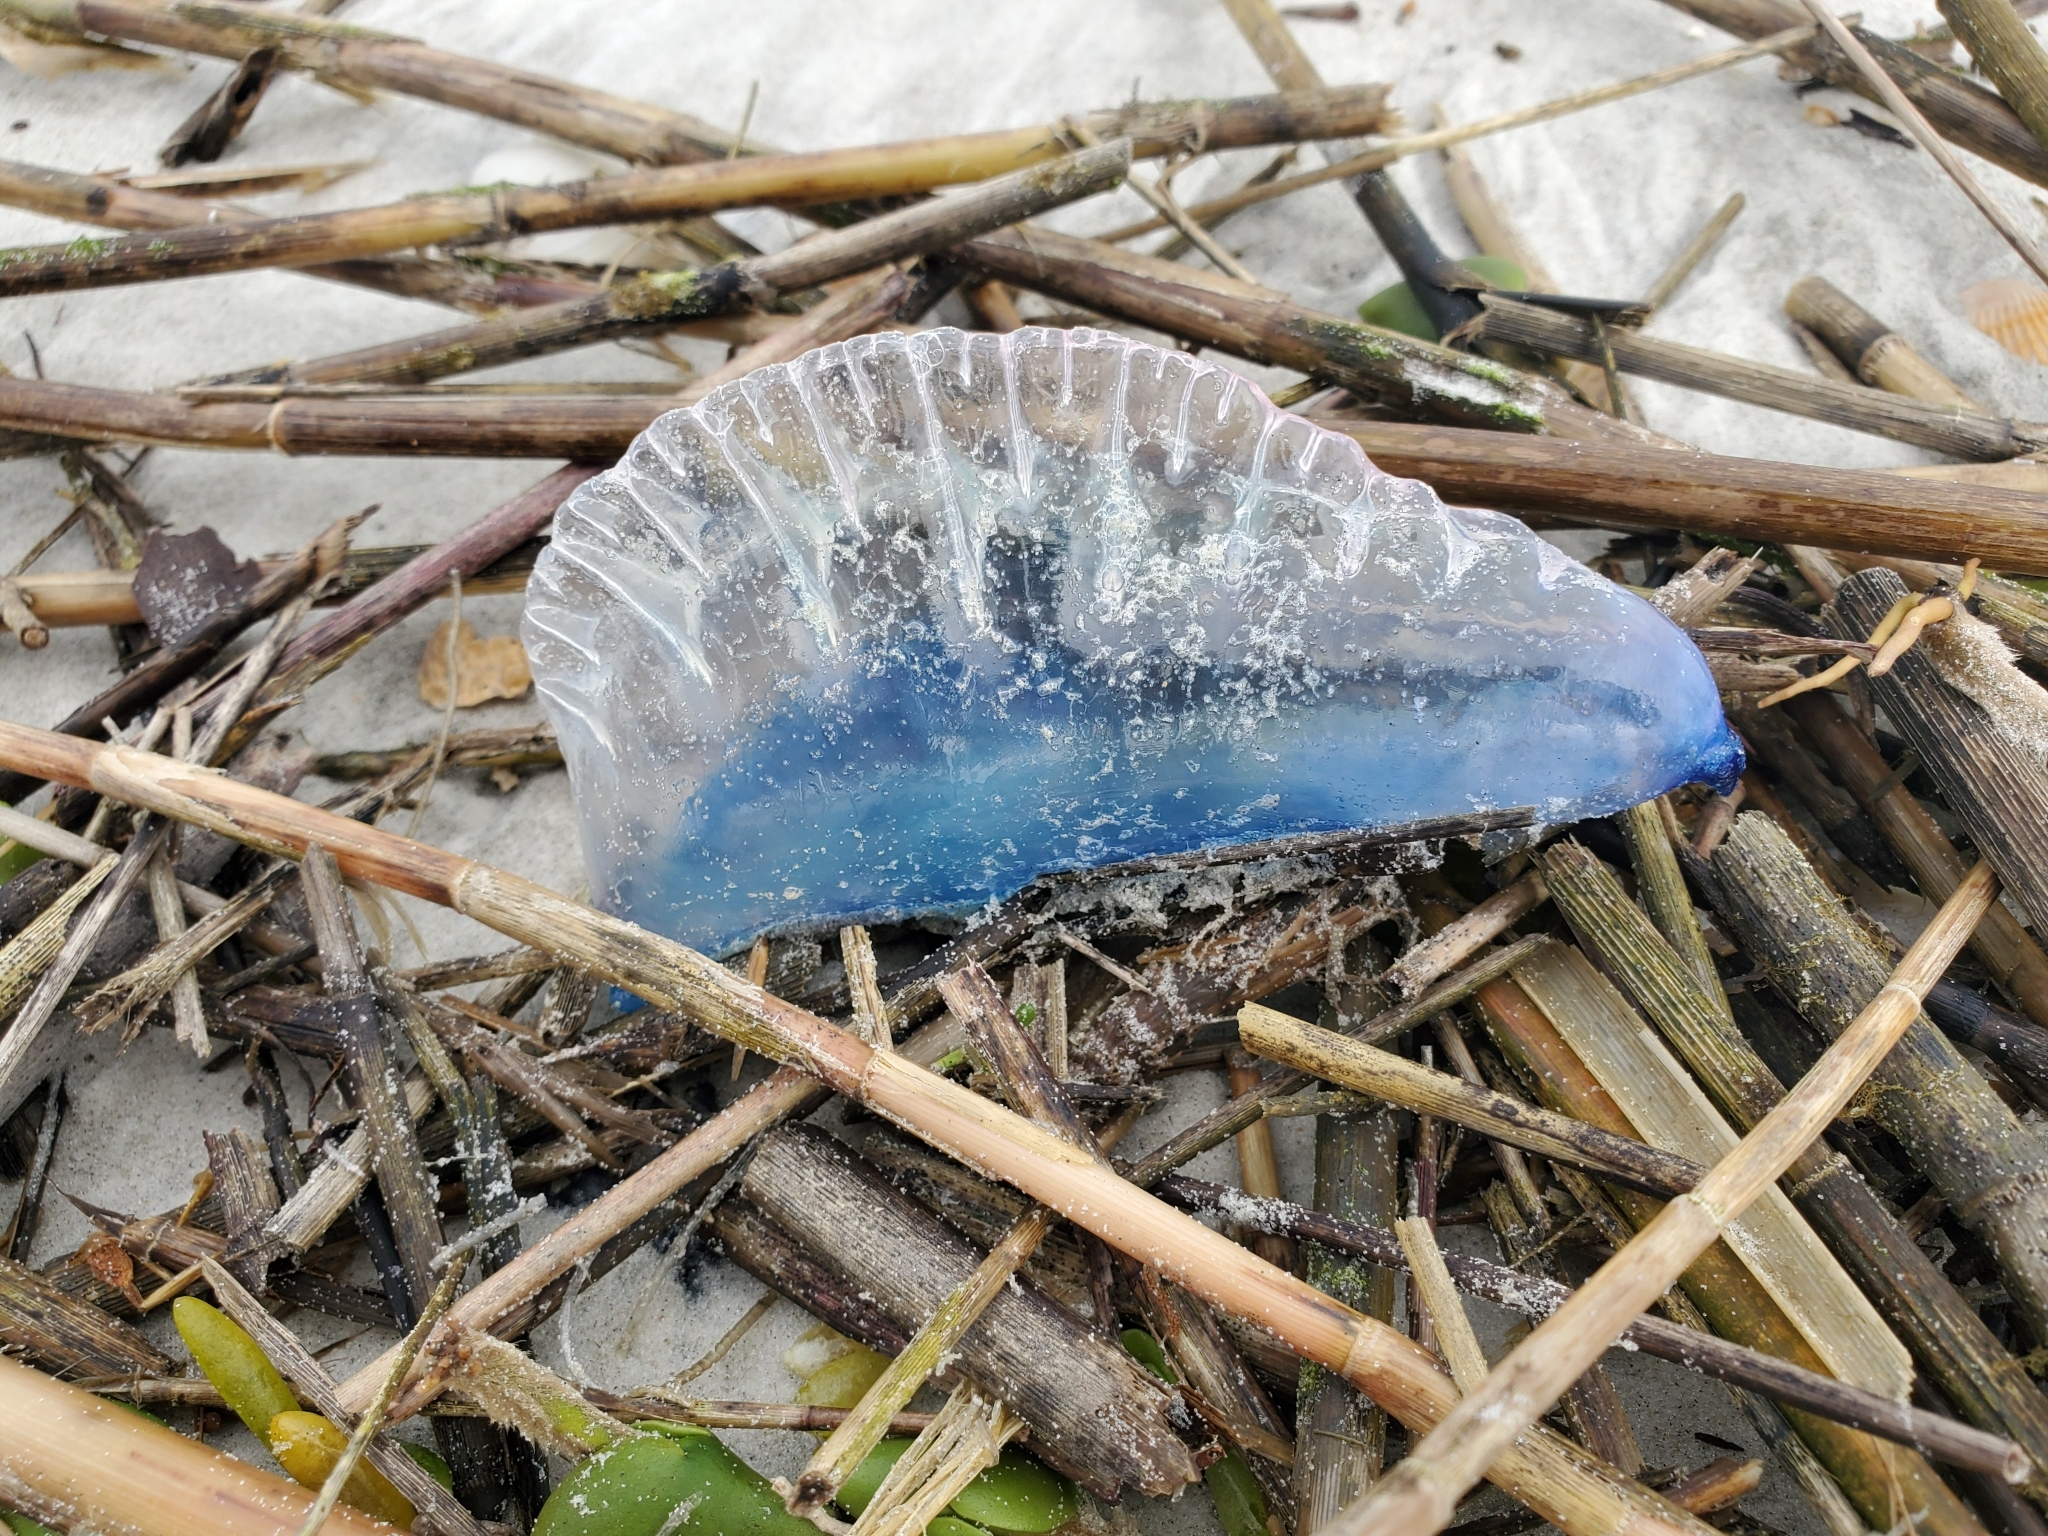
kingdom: Animalia
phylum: Cnidaria
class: Hydrozoa
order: Siphonophorae
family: Physaliidae
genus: Physalia
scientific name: Physalia physalis
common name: Portuguese man-of-war
